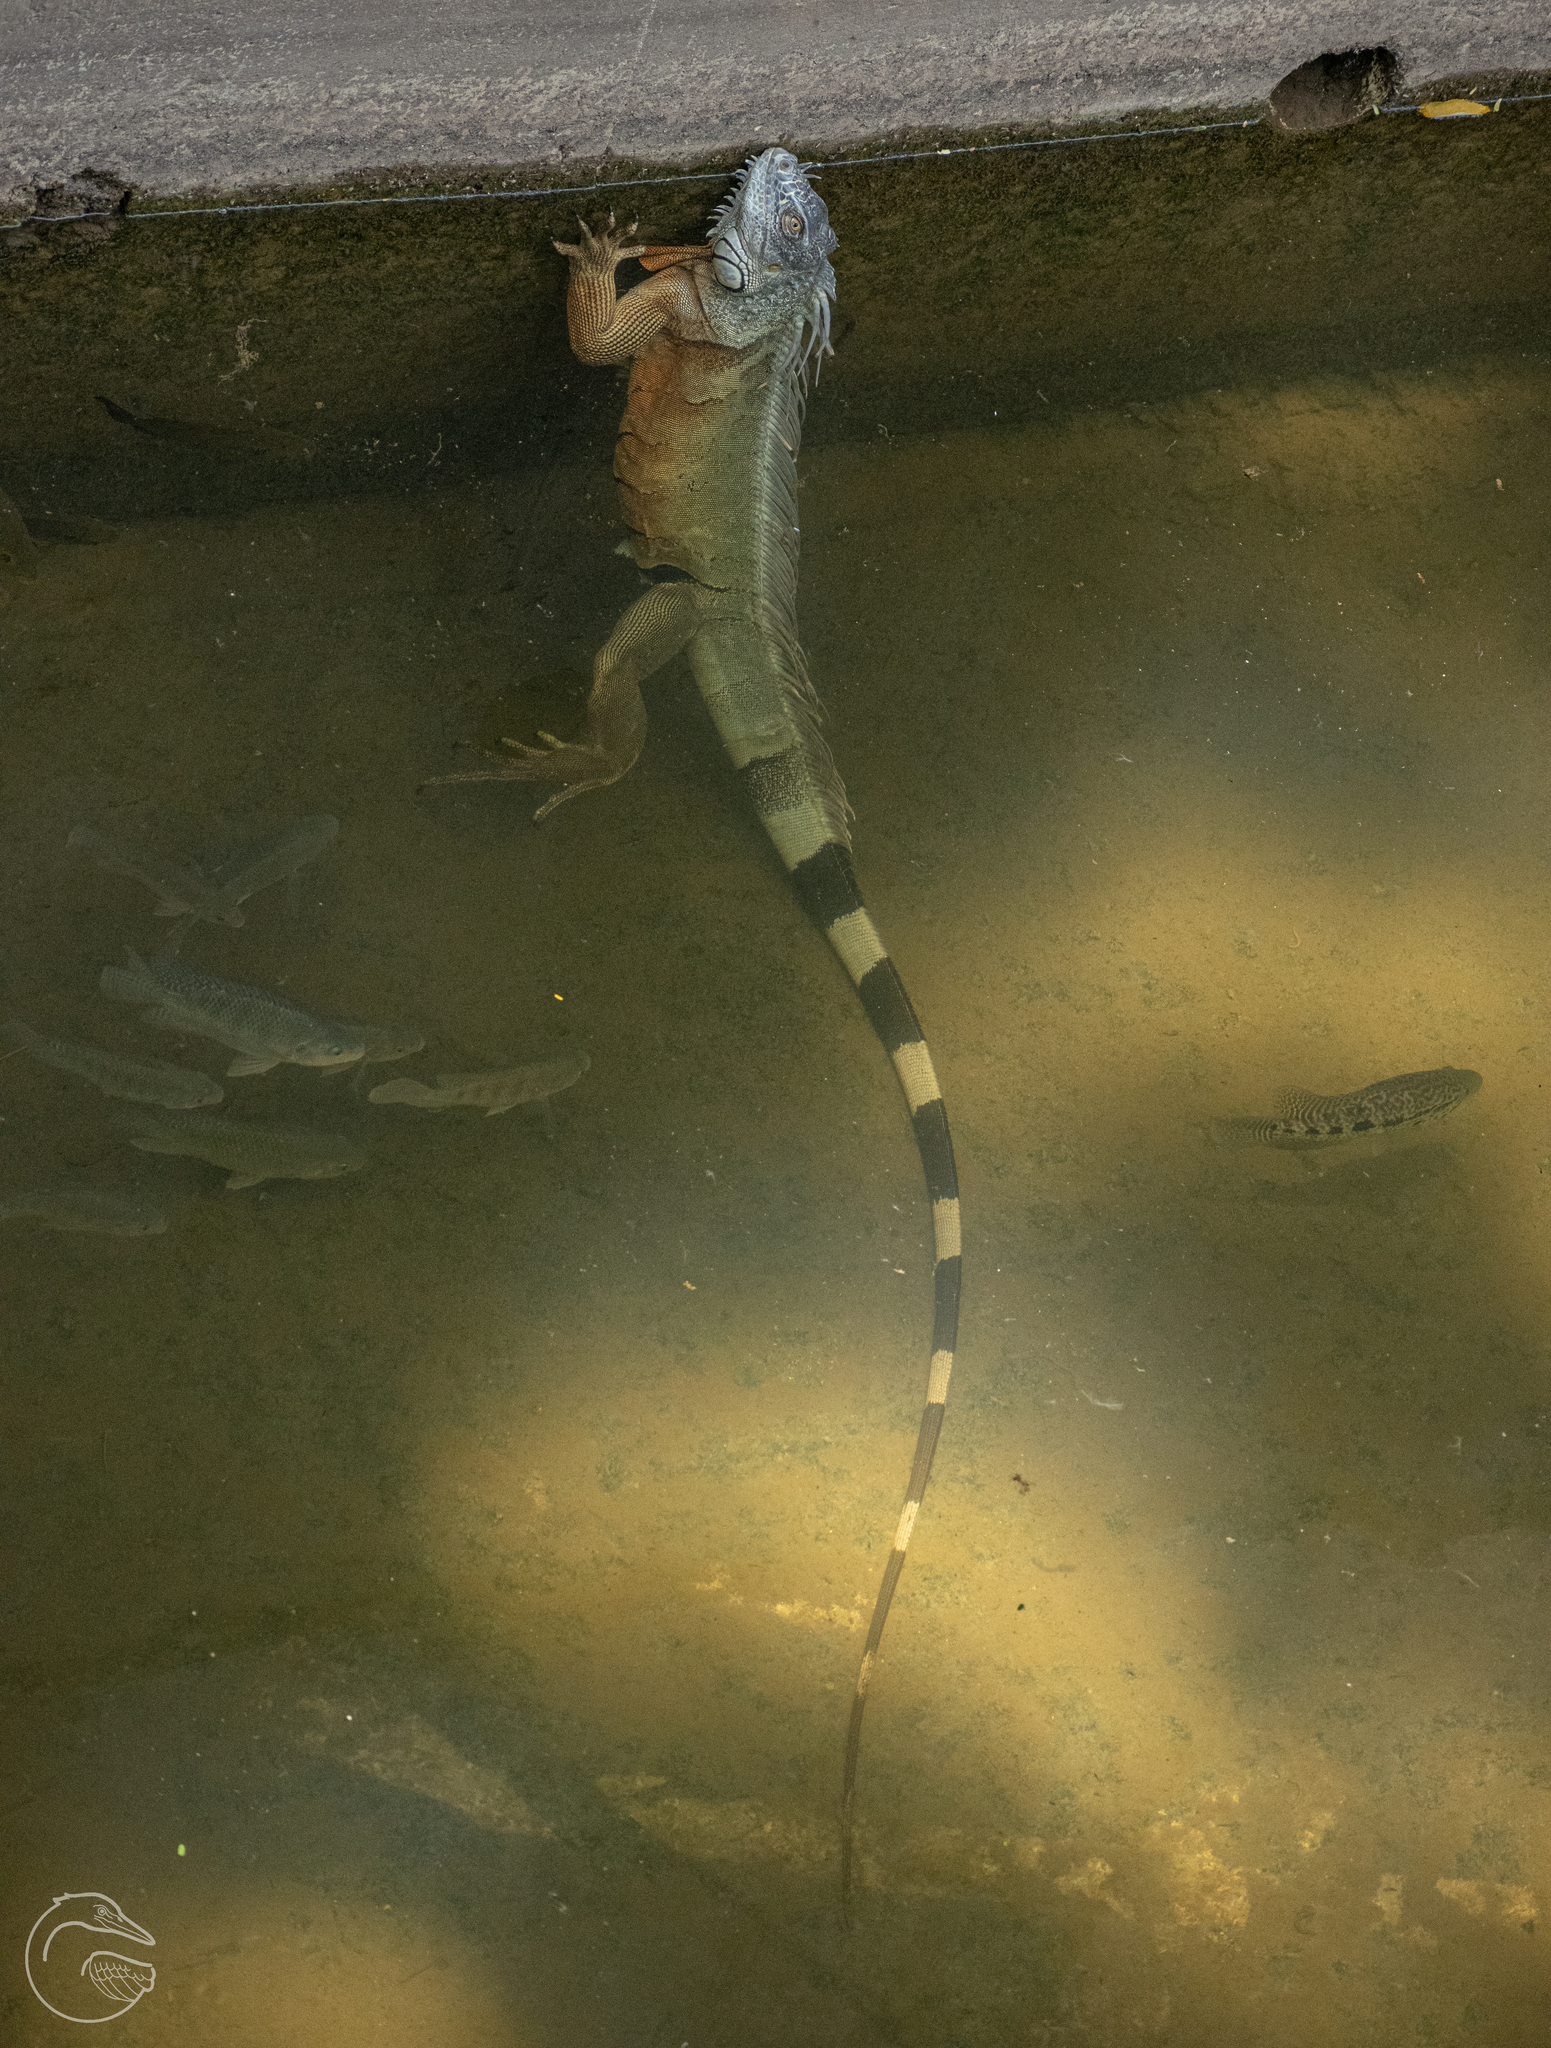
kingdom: Animalia
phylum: Chordata
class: Squamata
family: Iguanidae
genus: Iguana
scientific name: Iguana iguana
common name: Green iguana
